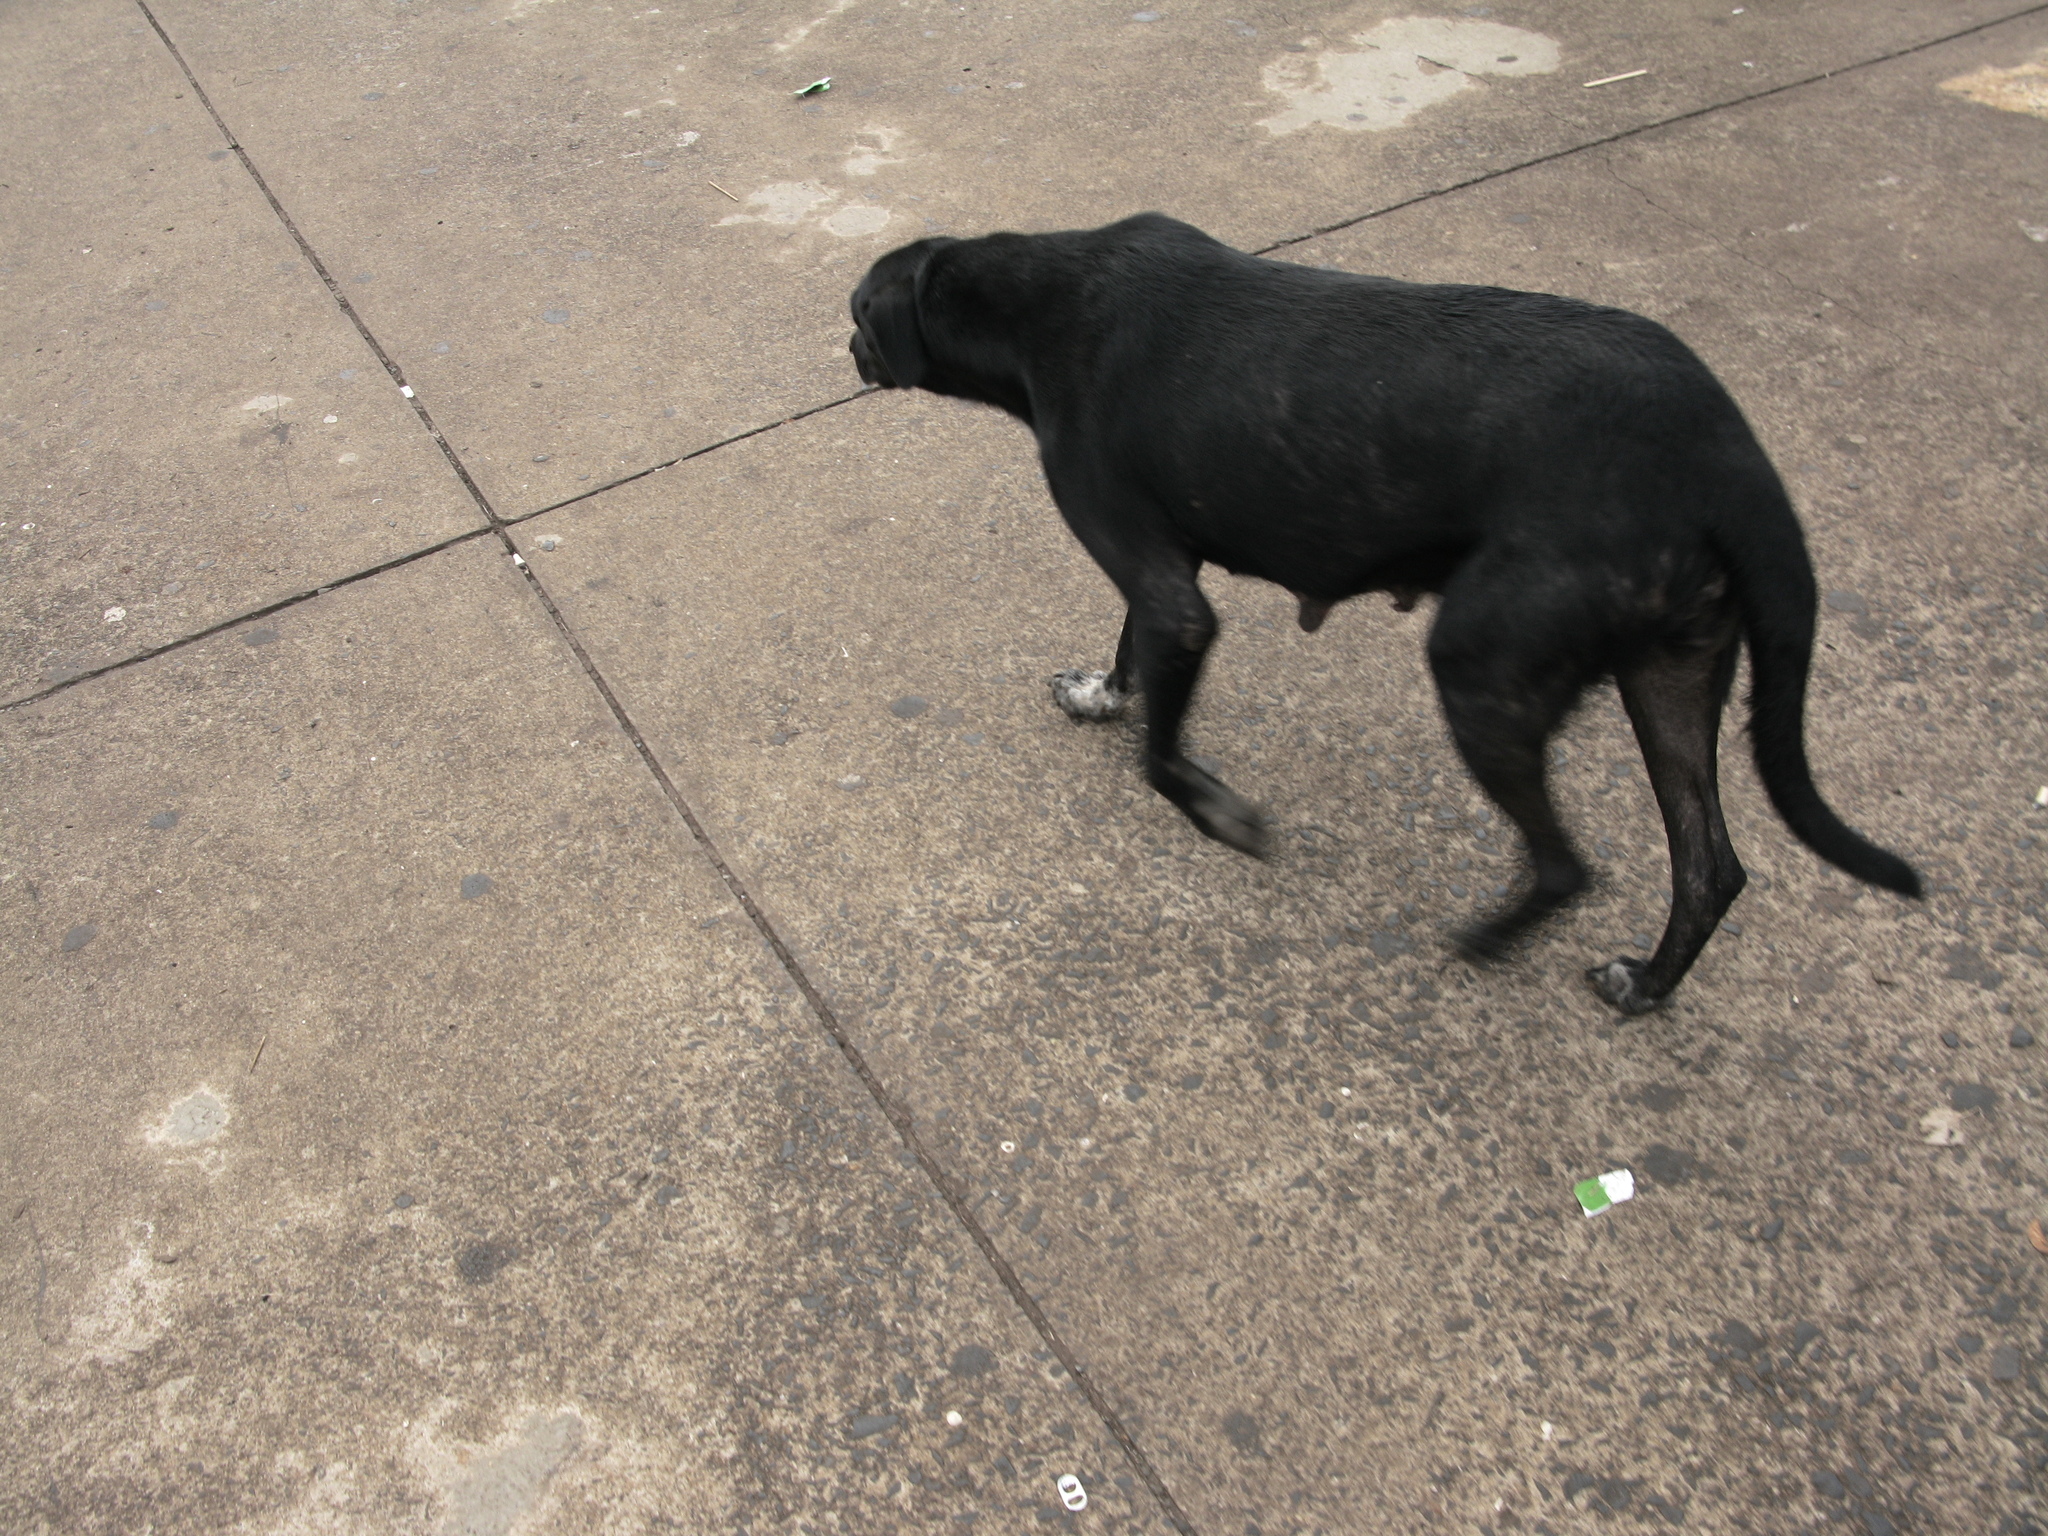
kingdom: Animalia
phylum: Chordata
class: Mammalia
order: Carnivora
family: Canidae
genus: Canis
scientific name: Canis lupus
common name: Gray wolf
